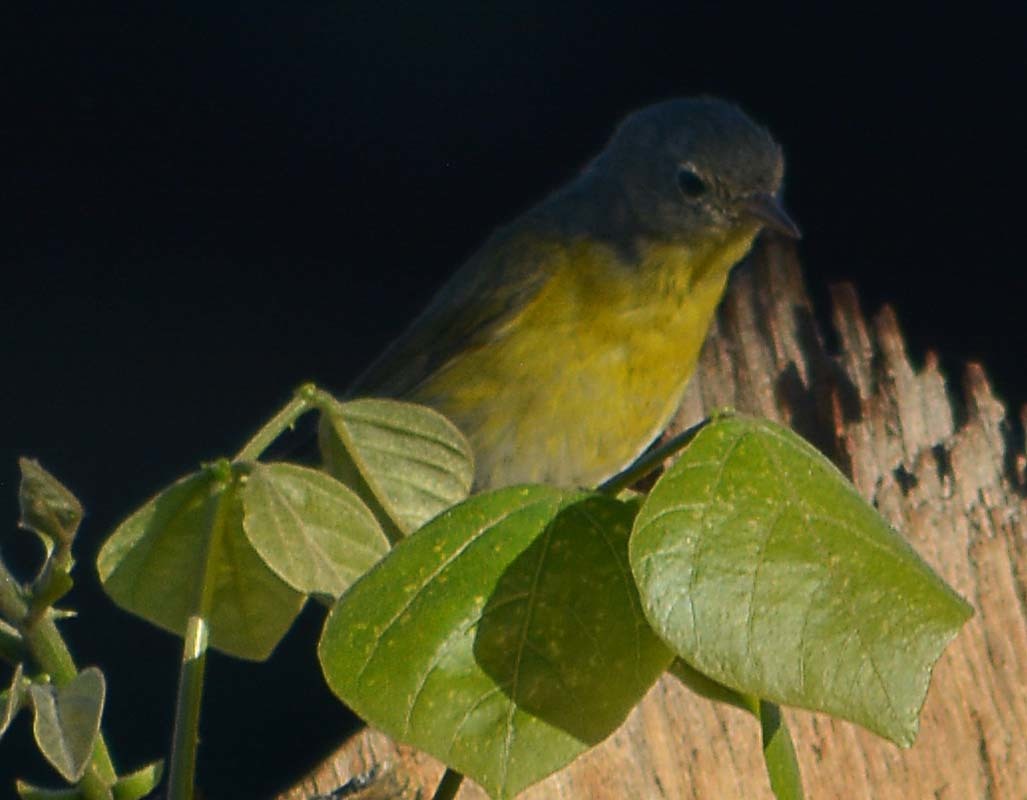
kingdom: Animalia
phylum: Chordata
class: Aves
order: Passeriformes
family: Parulidae
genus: Leiothlypis
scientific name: Leiothlypis ruficapilla
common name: Nashville warbler
